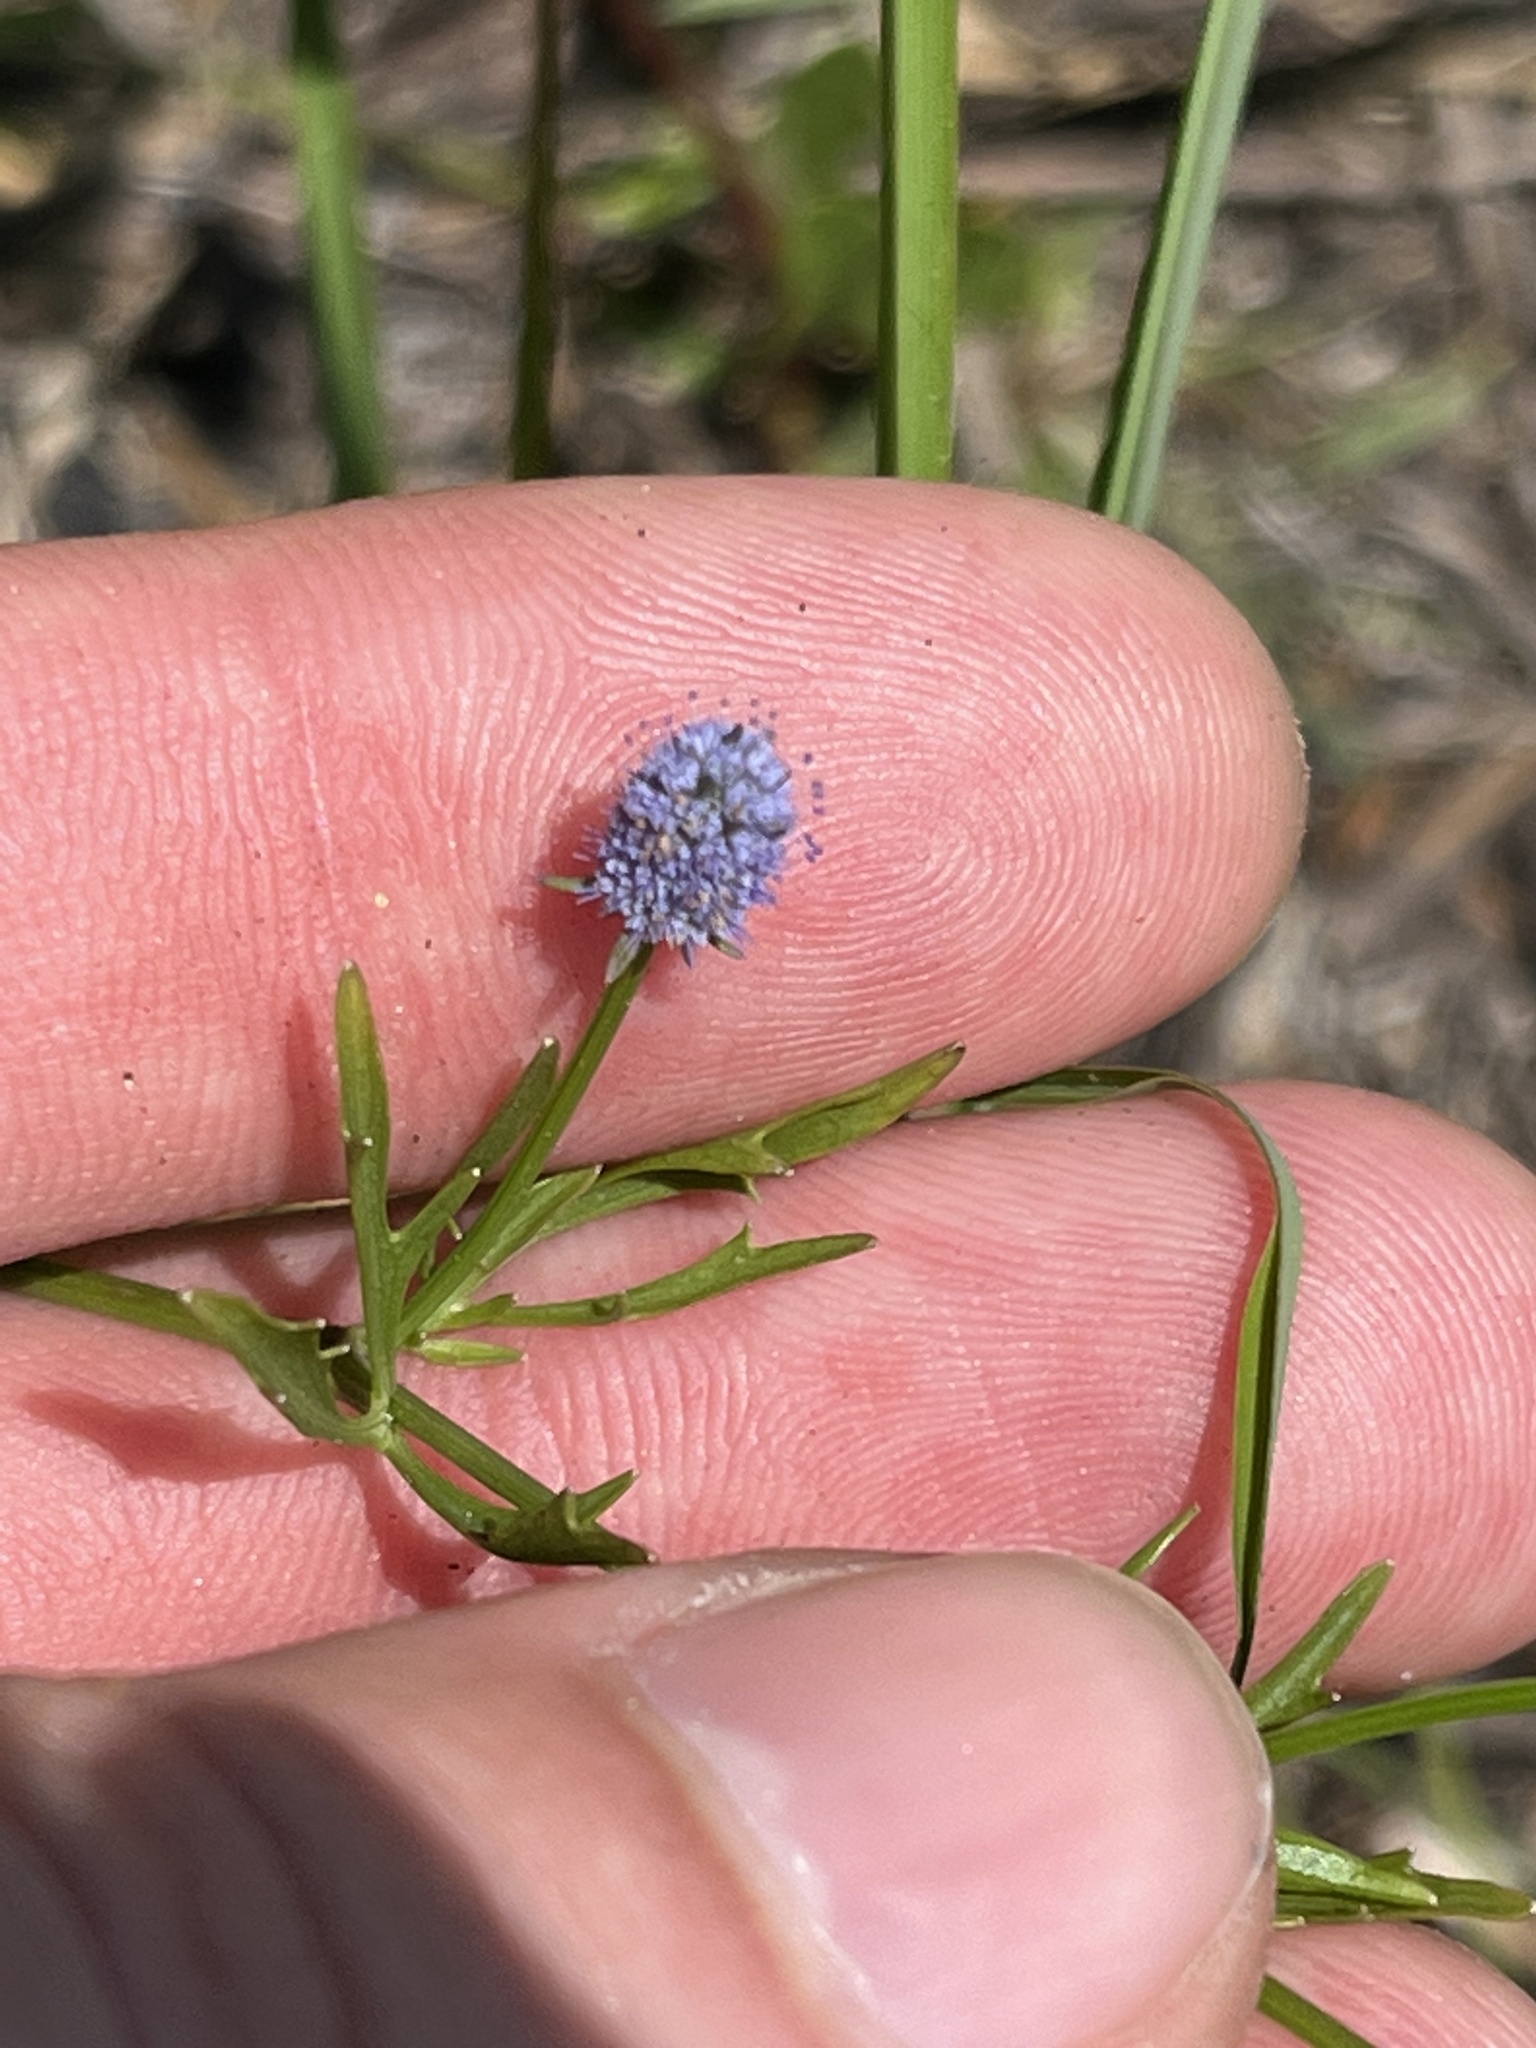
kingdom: Plantae
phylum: Tracheophyta
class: Magnoliopsida
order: Apiales
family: Apiaceae
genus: Eryngium
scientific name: Eryngium baldwinii
